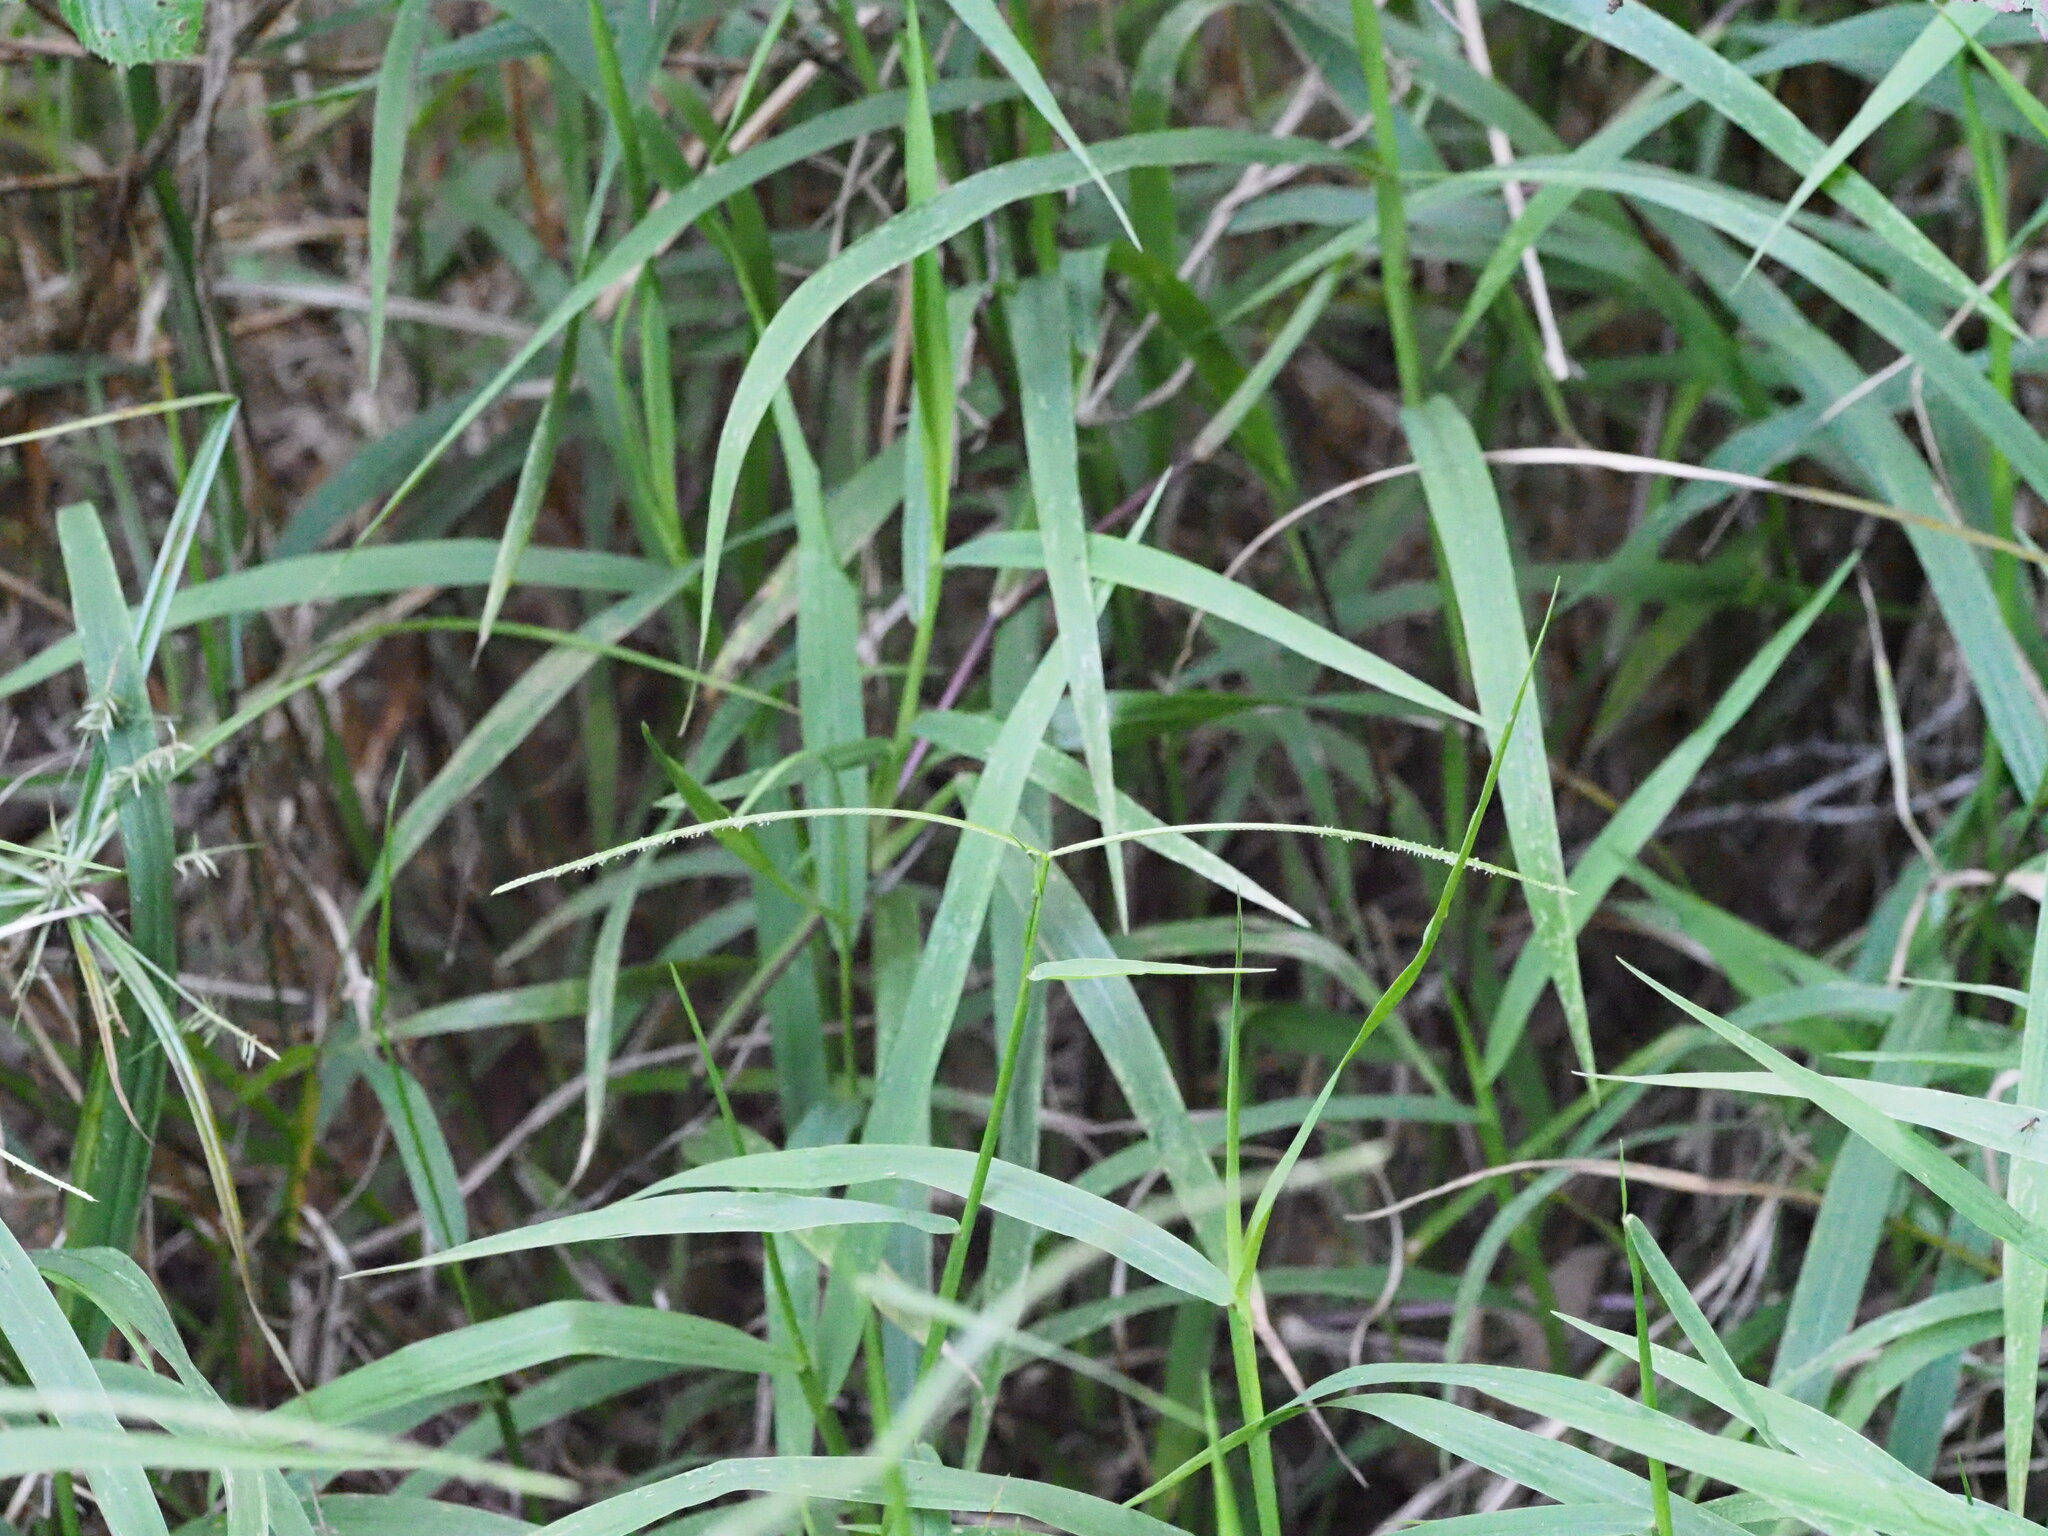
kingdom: Plantae
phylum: Tracheophyta
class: Liliopsida
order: Poales
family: Poaceae
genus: Paspalum
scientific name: Paspalum conjugatum
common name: Hilograss
